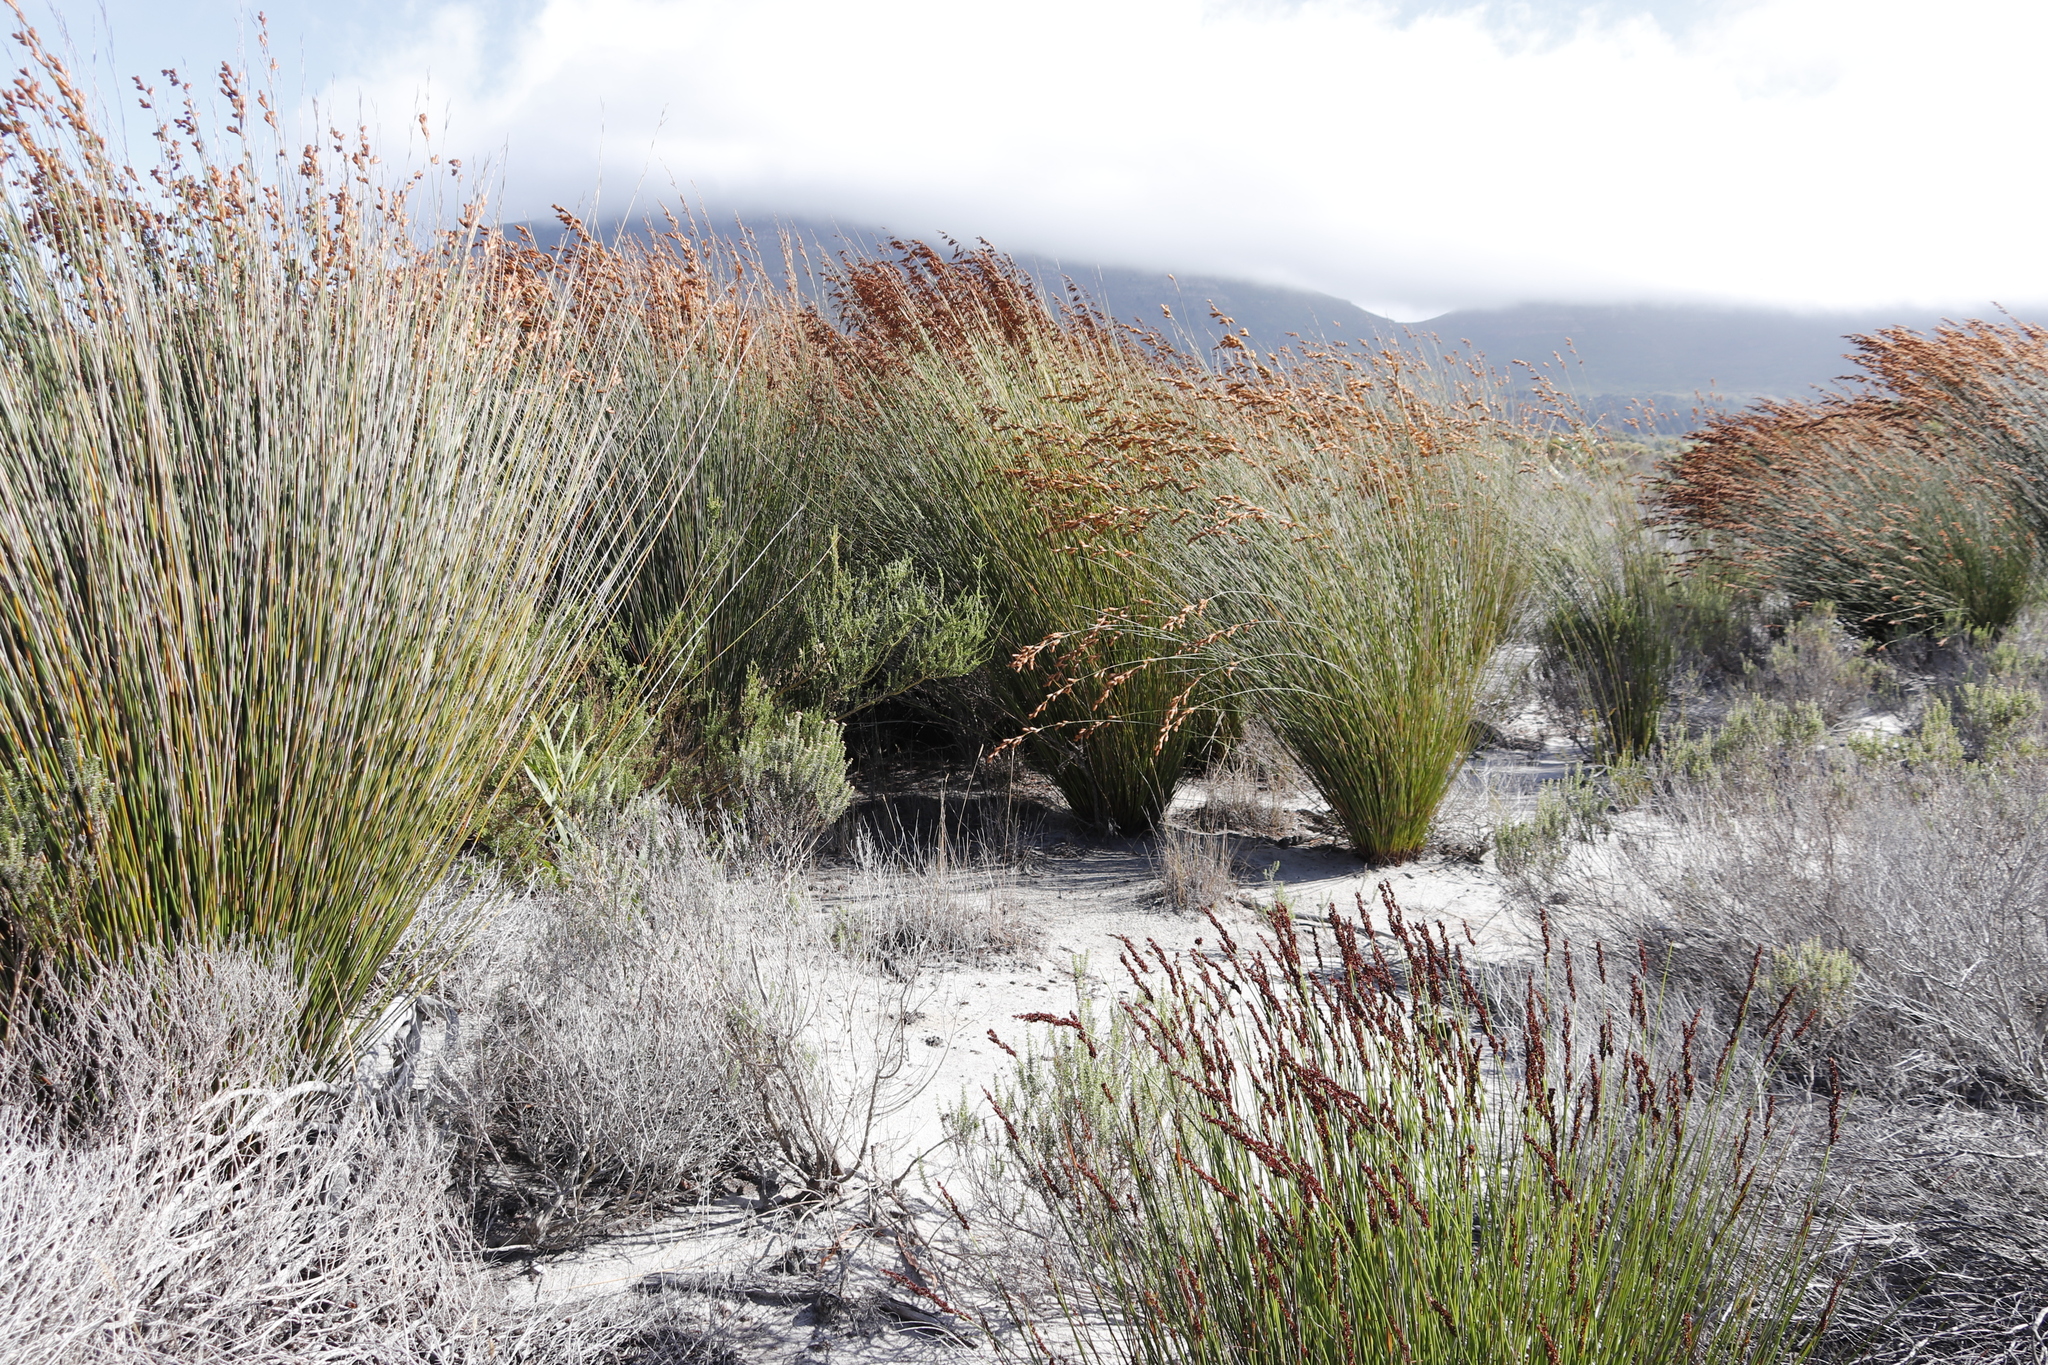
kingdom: Plantae
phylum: Tracheophyta
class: Liliopsida
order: Poales
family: Restionaceae
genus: Thamnochortus
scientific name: Thamnochortus spicigerus
